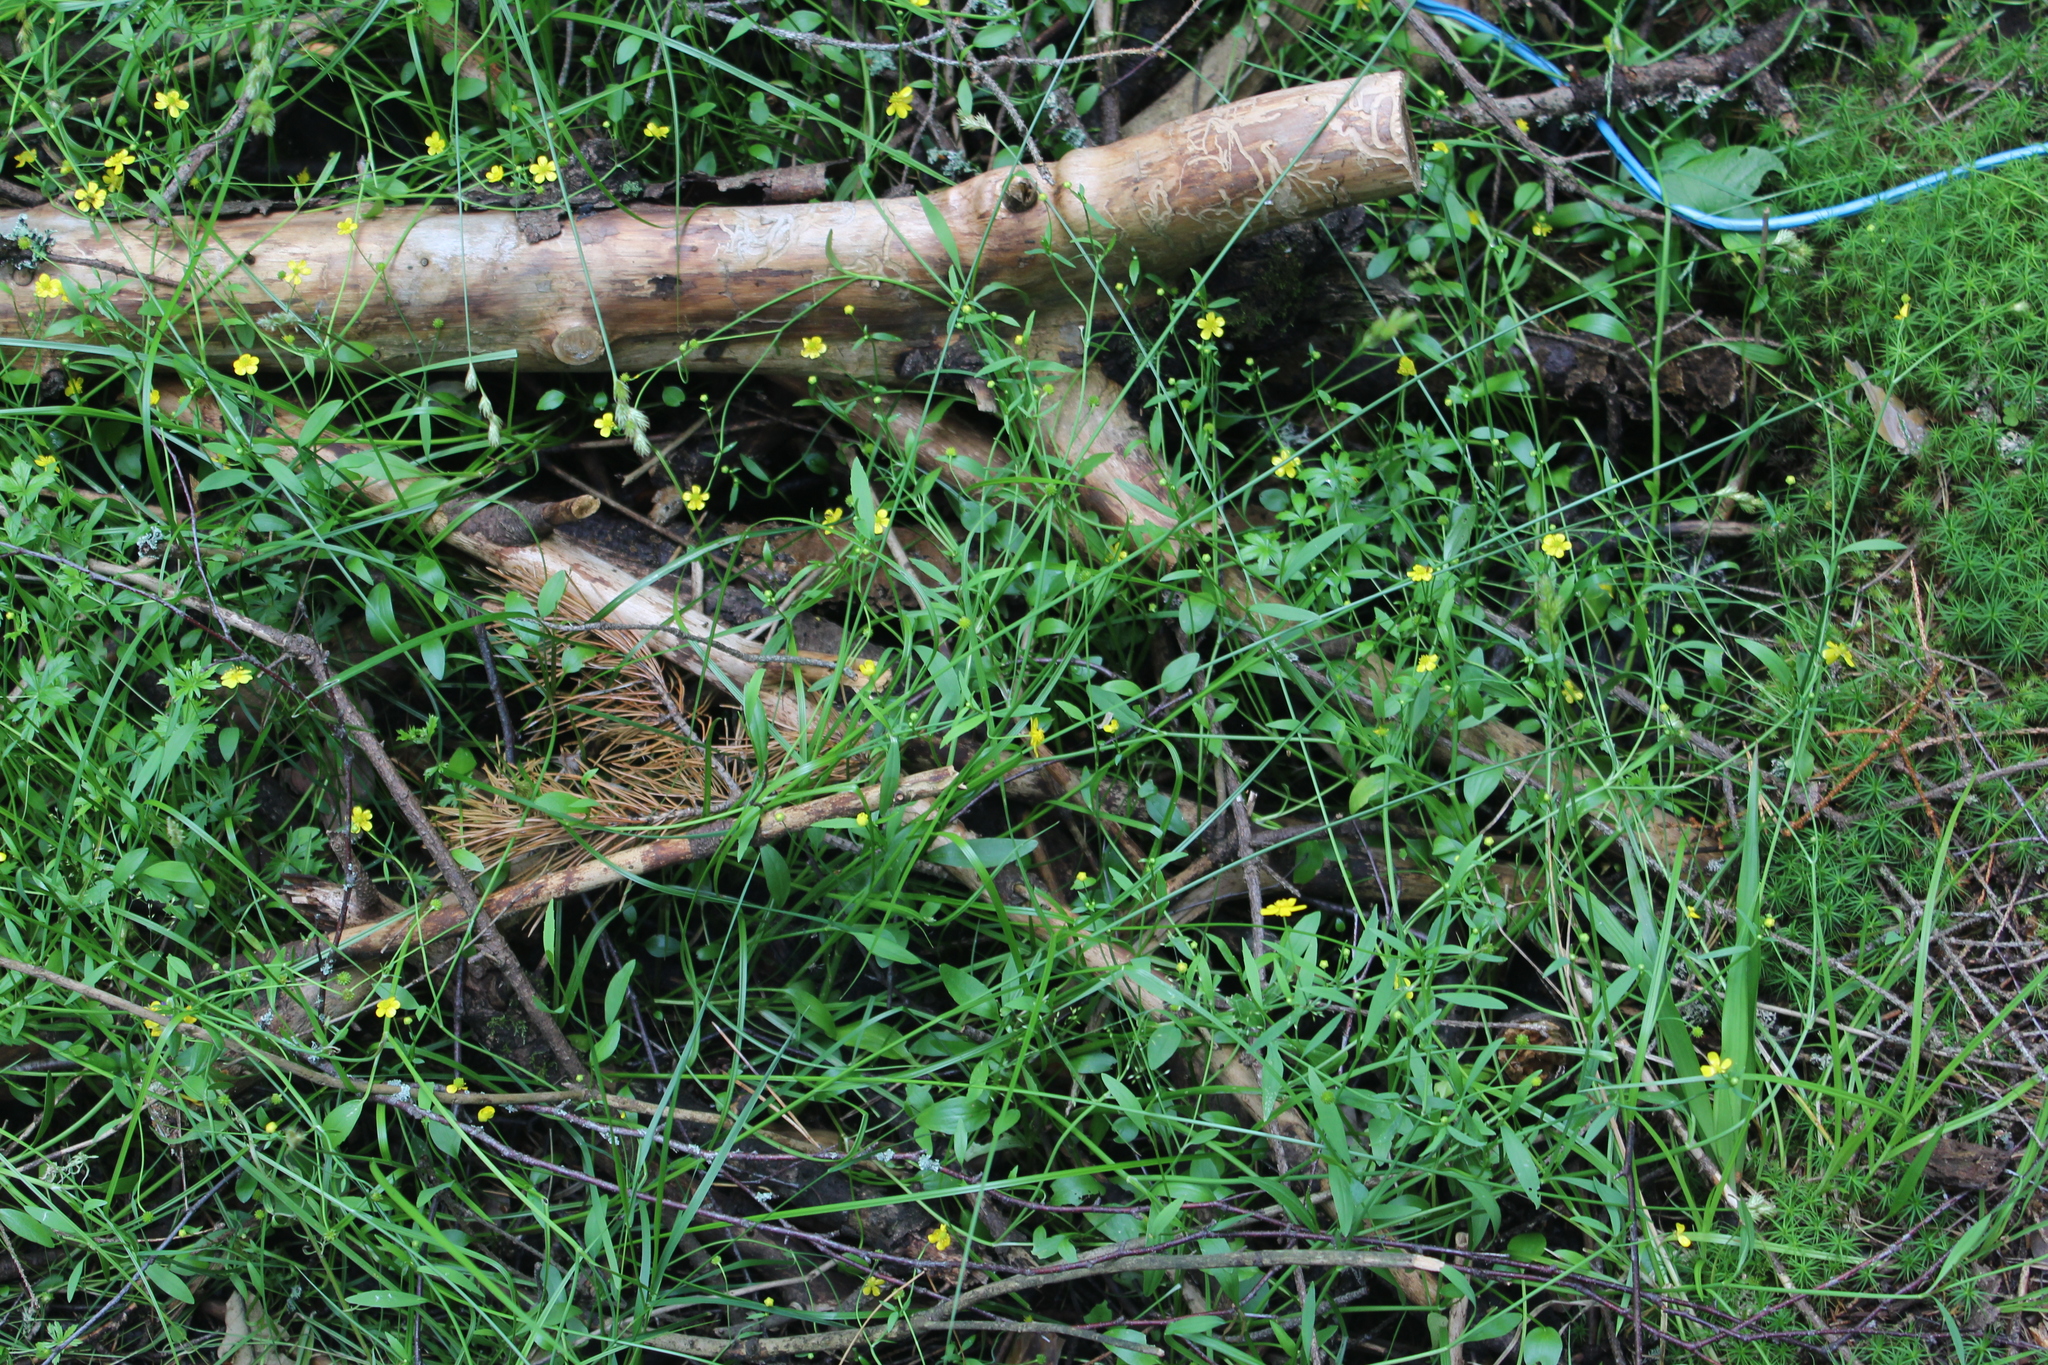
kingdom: Plantae
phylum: Tracheophyta
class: Magnoliopsida
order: Ranunculales
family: Ranunculaceae
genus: Ranunculus
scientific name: Ranunculus flammula
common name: Lesser spearwort
